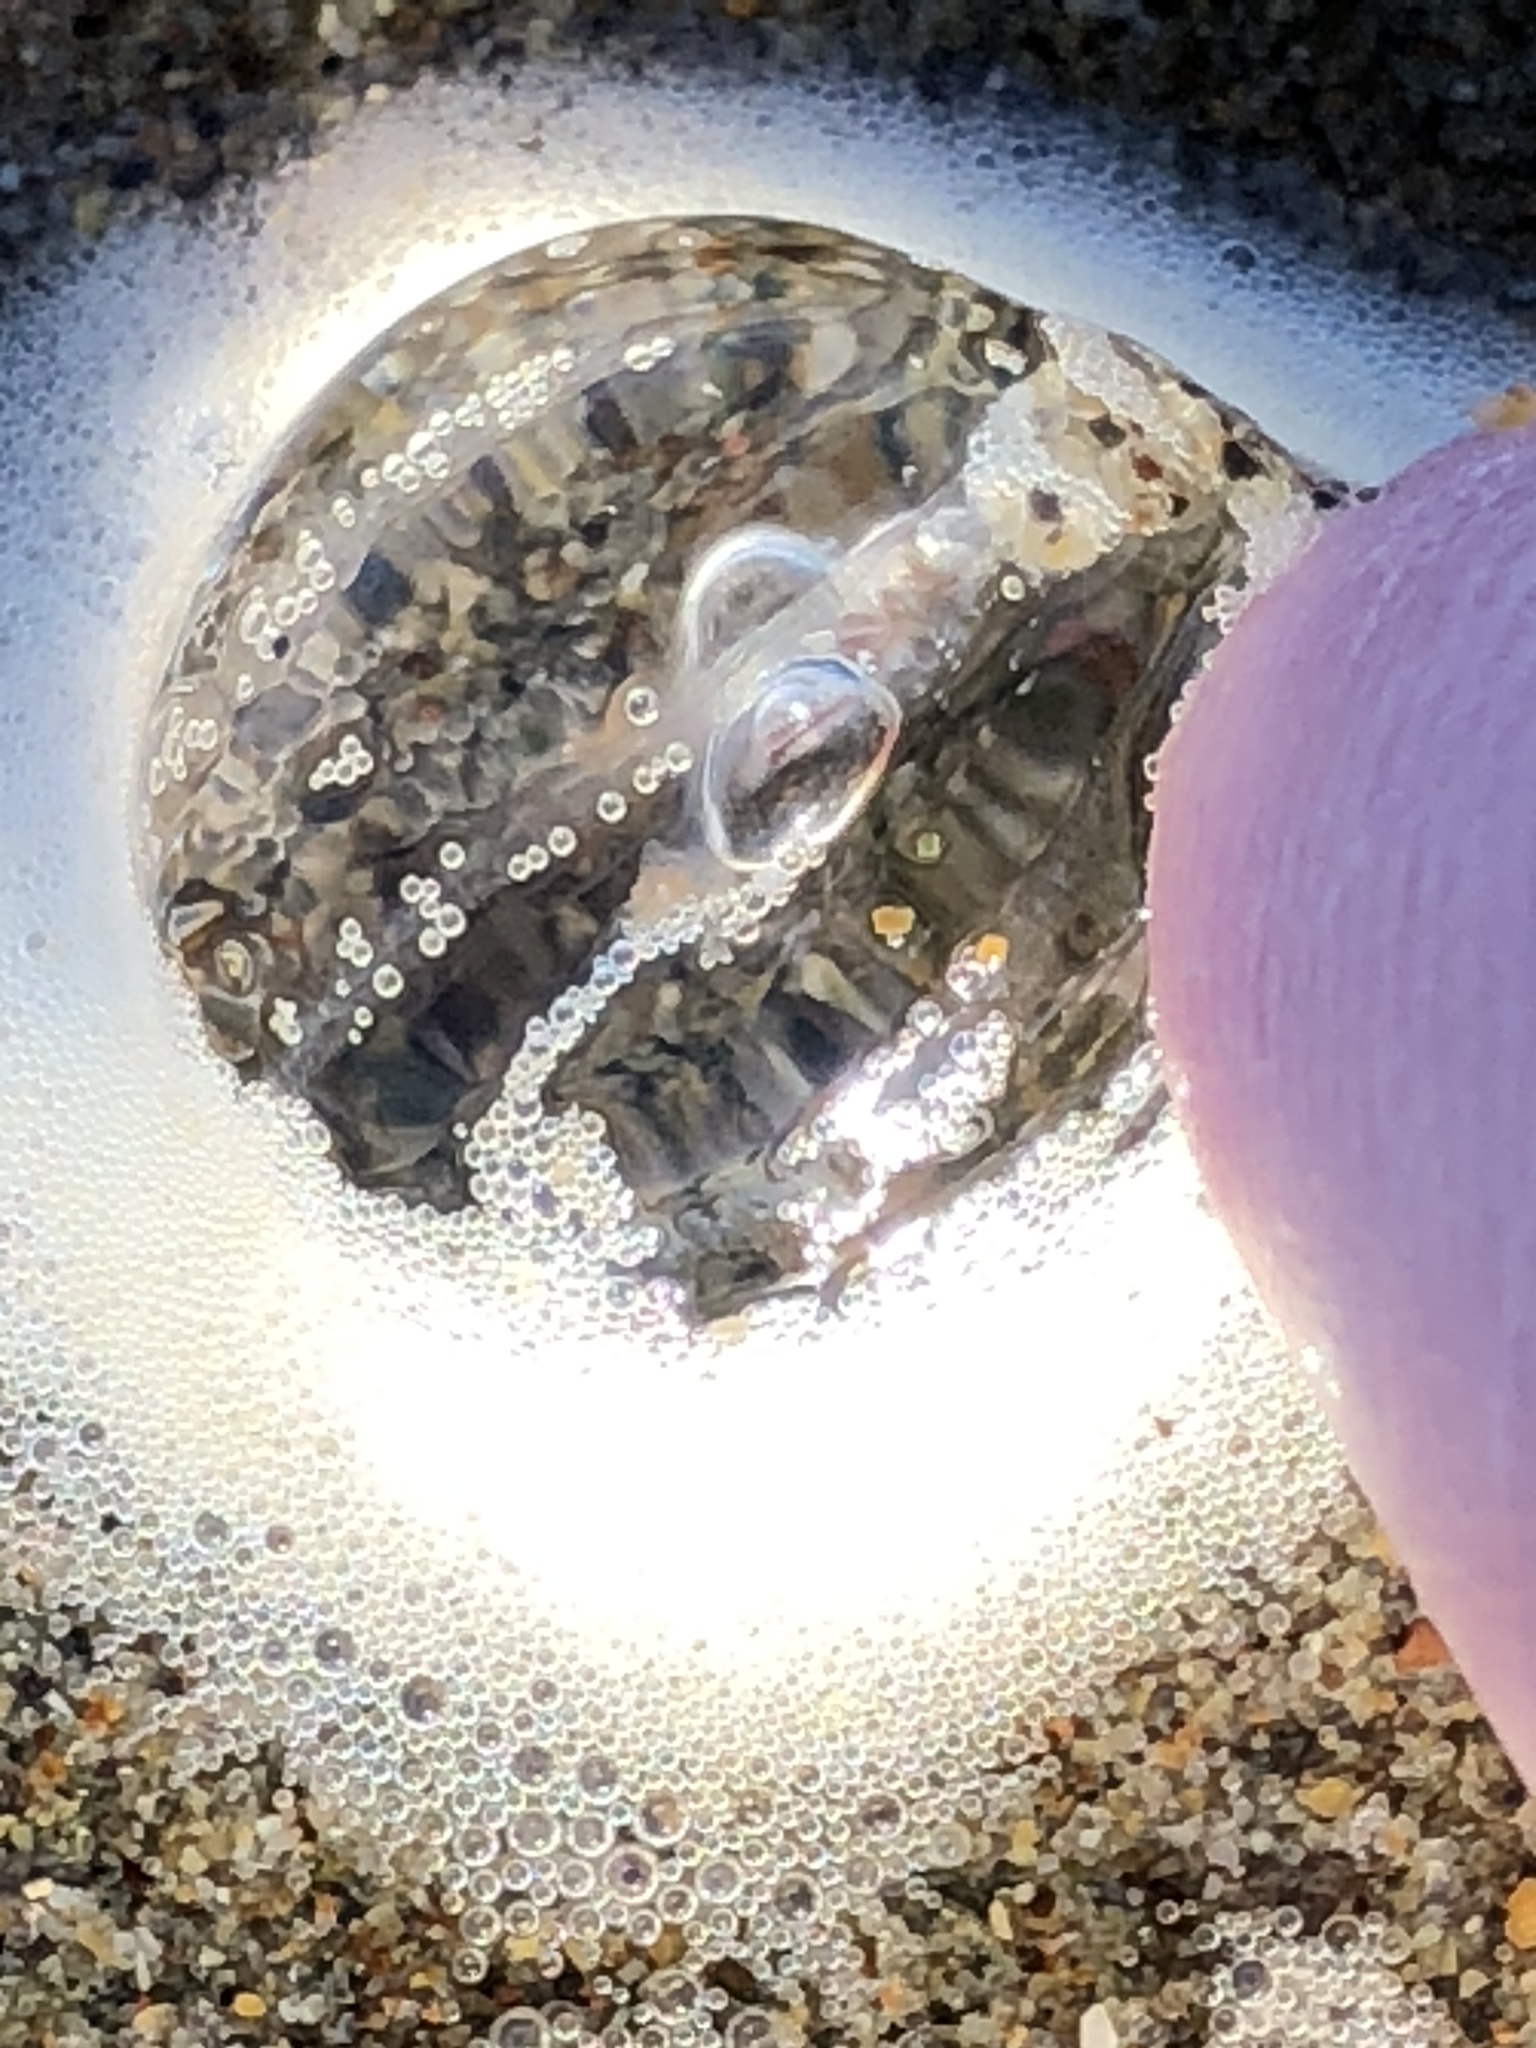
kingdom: Animalia
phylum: Ctenophora
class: Tentaculata
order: Cydippida
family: Pleurobrachiidae
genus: Pleurobrachia
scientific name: Pleurobrachia bachei
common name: Pacific sea gooseberry
